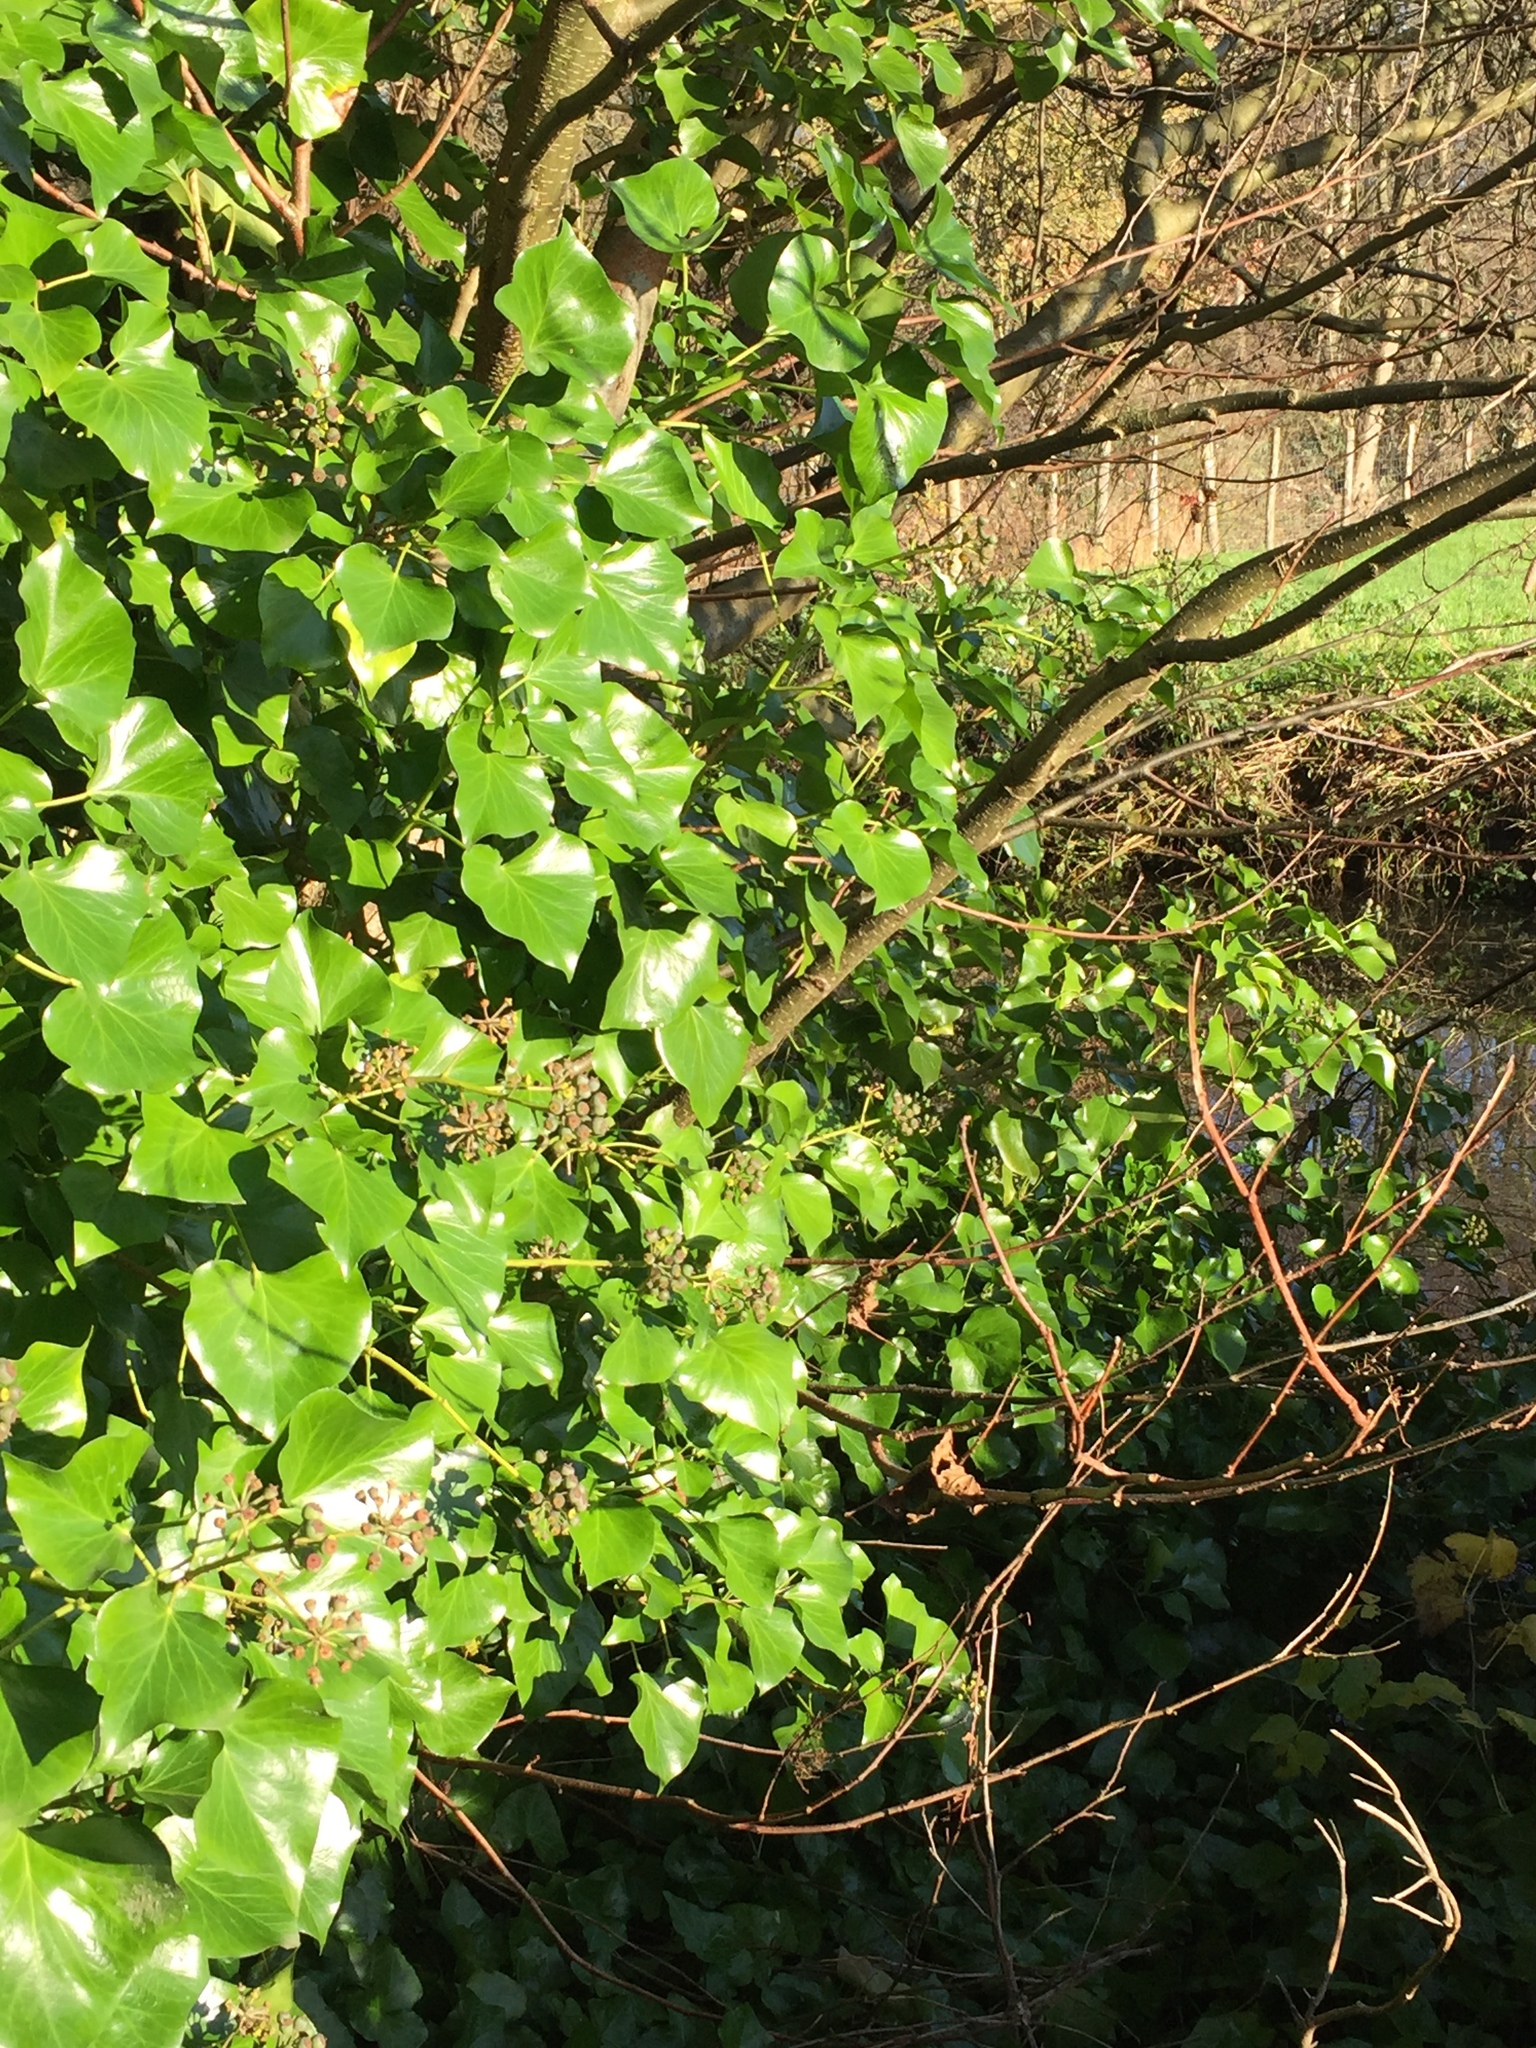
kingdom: Plantae
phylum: Tracheophyta
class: Magnoliopsida
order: Apiales
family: Araliaceae
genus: Hedera
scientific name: Hedera helix
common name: Ivy
